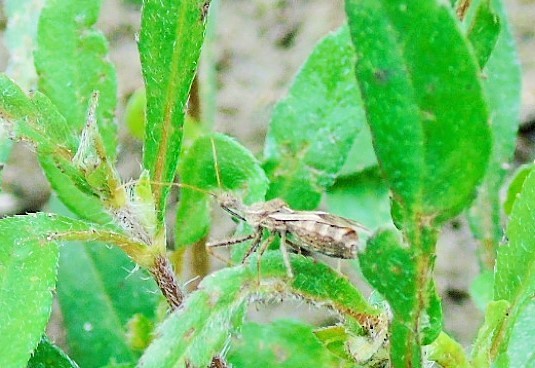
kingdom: Animalia
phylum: Arthropoda
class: Insecta
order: Hemiptera
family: Reduviidae
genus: Sinea
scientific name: Sinea
